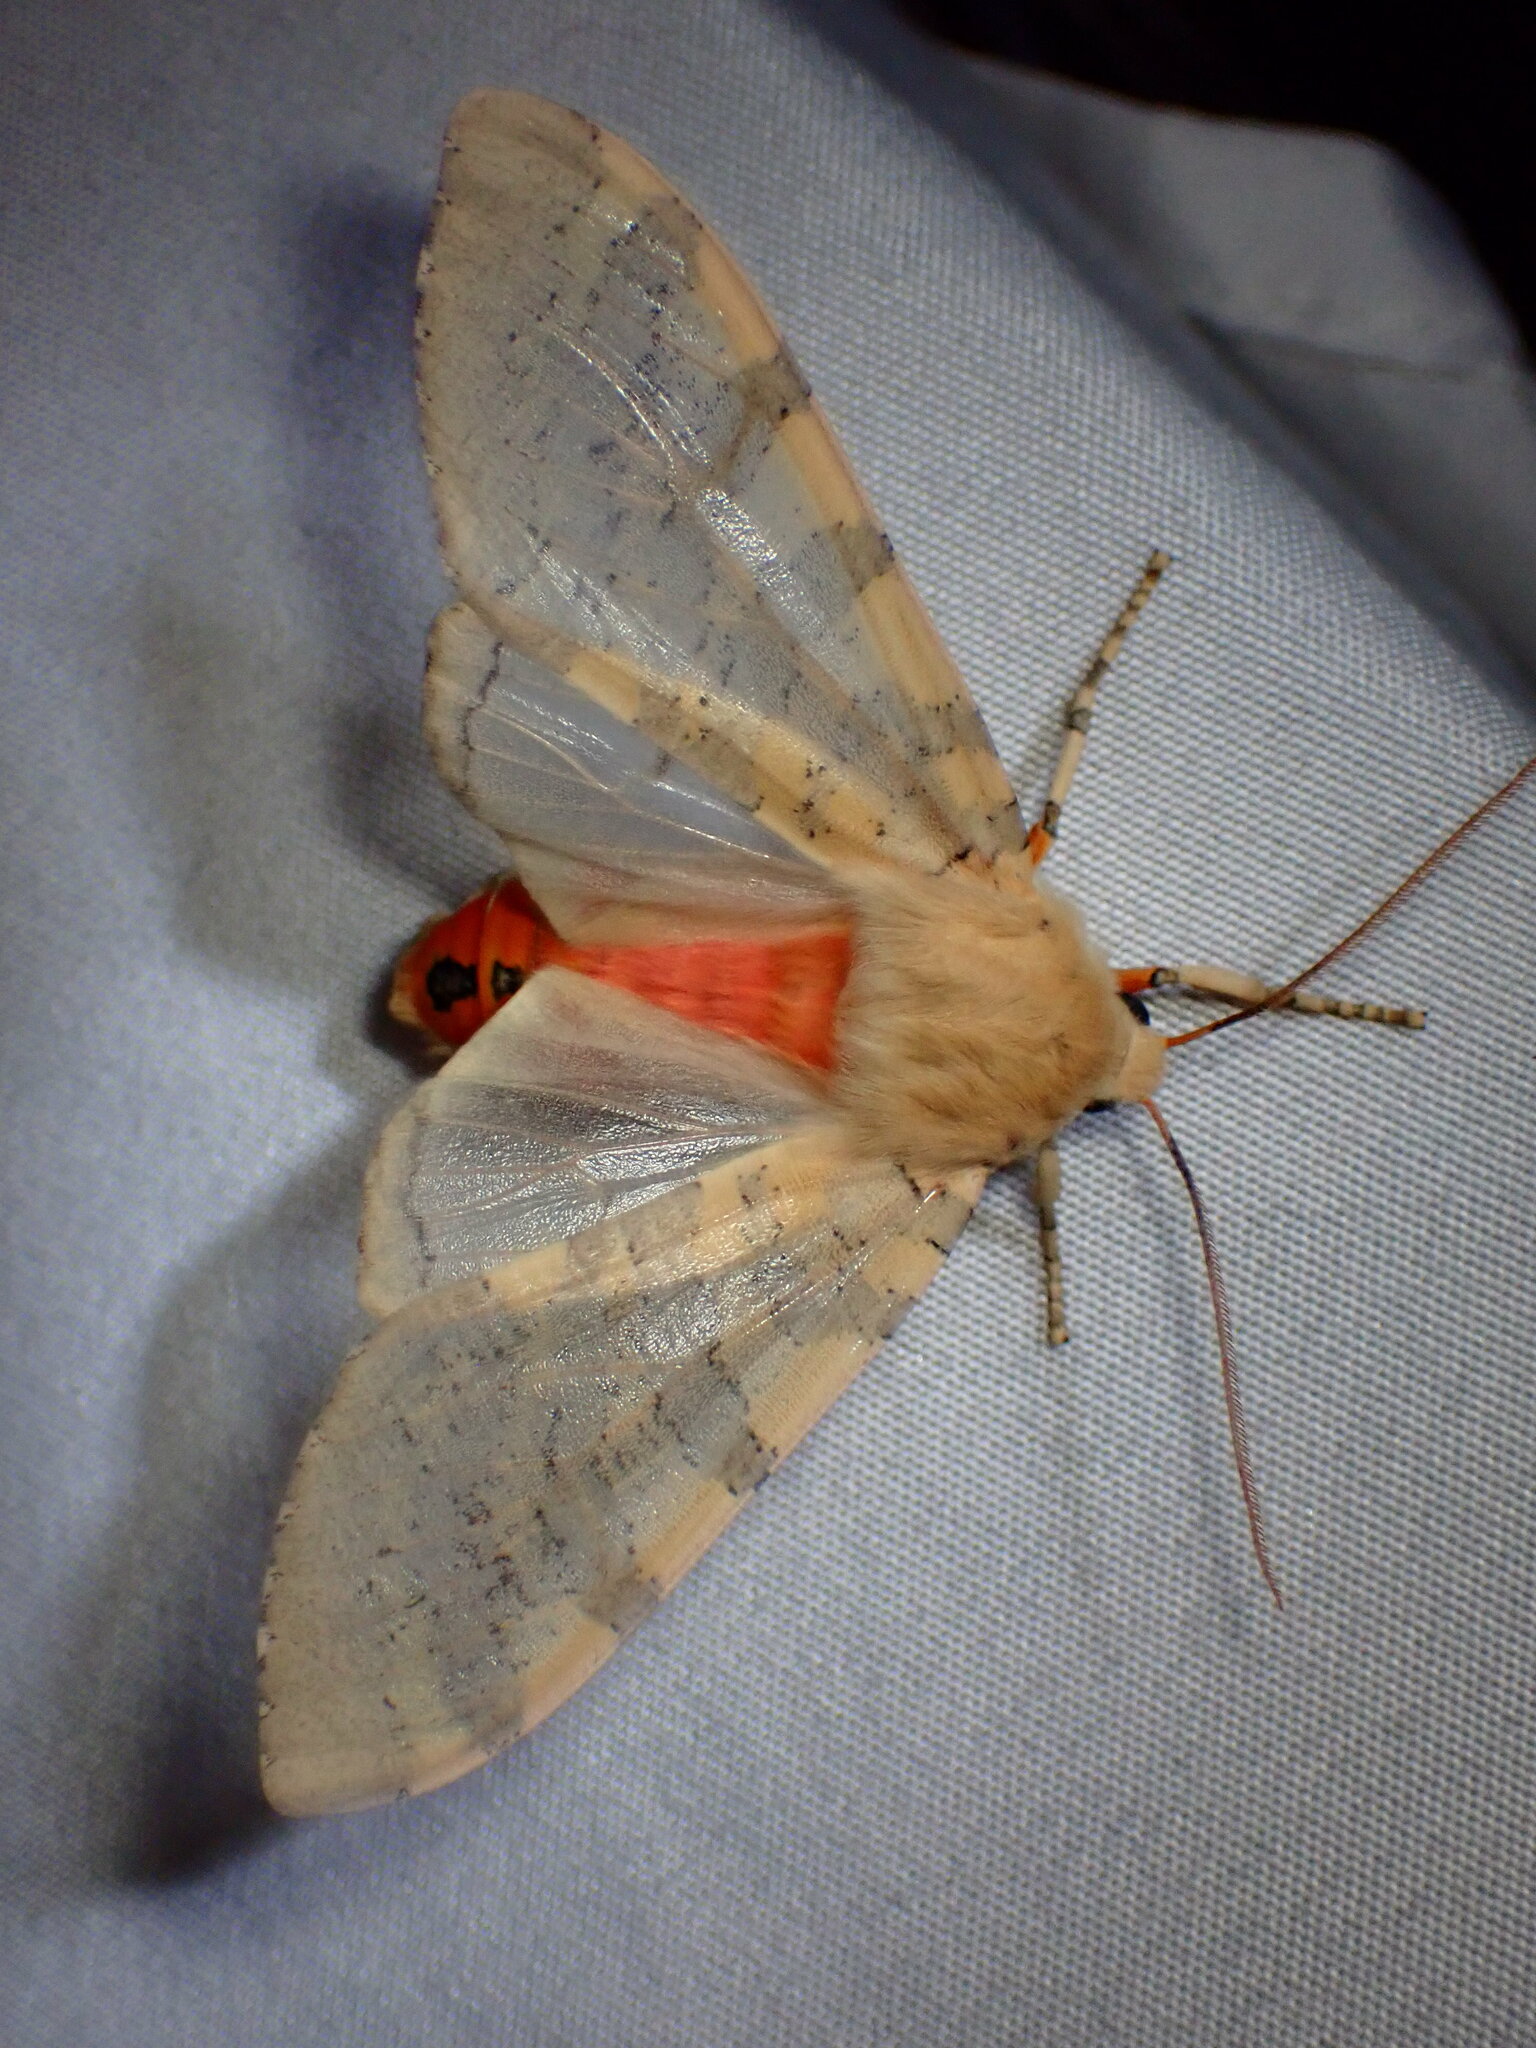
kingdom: Animalia
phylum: Arthropoda
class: Insecta
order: Lepidoptera
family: Erebidae
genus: Hemihyalea
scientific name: Hemihyalea edwardsii
